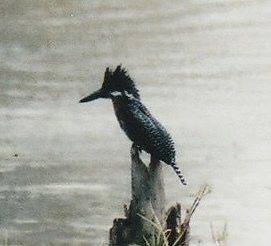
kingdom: Animalia
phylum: Chordata
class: Aves
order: Coraciiformes
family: Alcedinidae
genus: Megaceryle
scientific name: Megaceryle maxima
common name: Giant kingfisher
